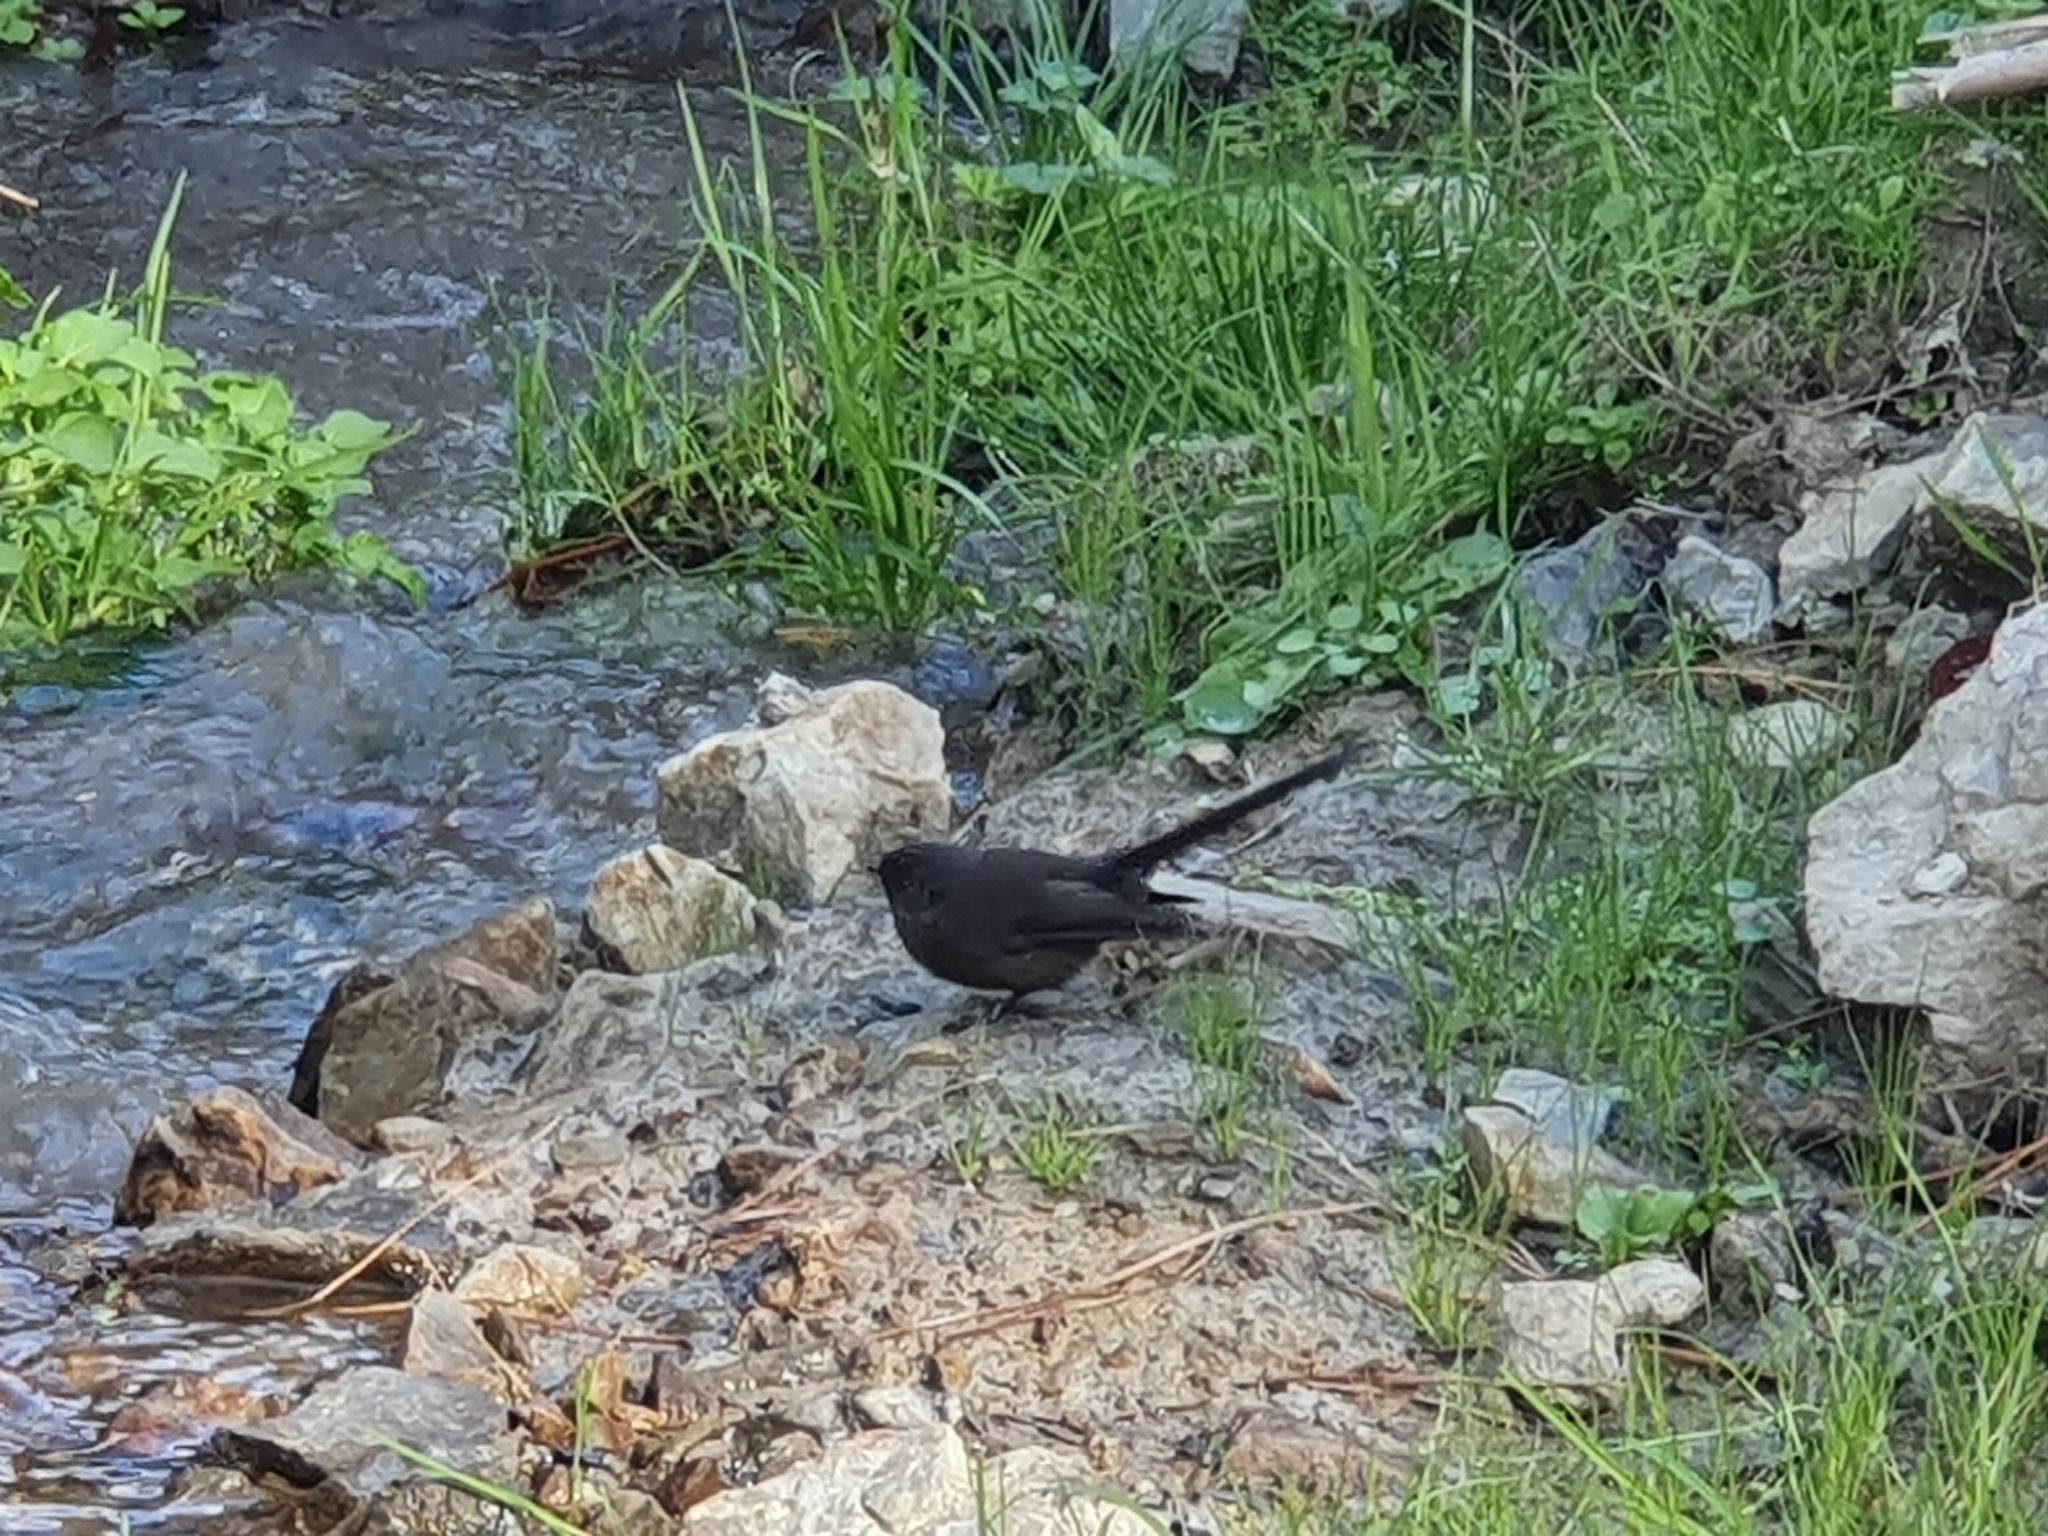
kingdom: Animalia
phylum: Chordata
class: Aves
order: Passeriformes
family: Rhipiduridae
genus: Rhipidura
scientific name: Rhipidura fuliginosa
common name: New zealand fantail
